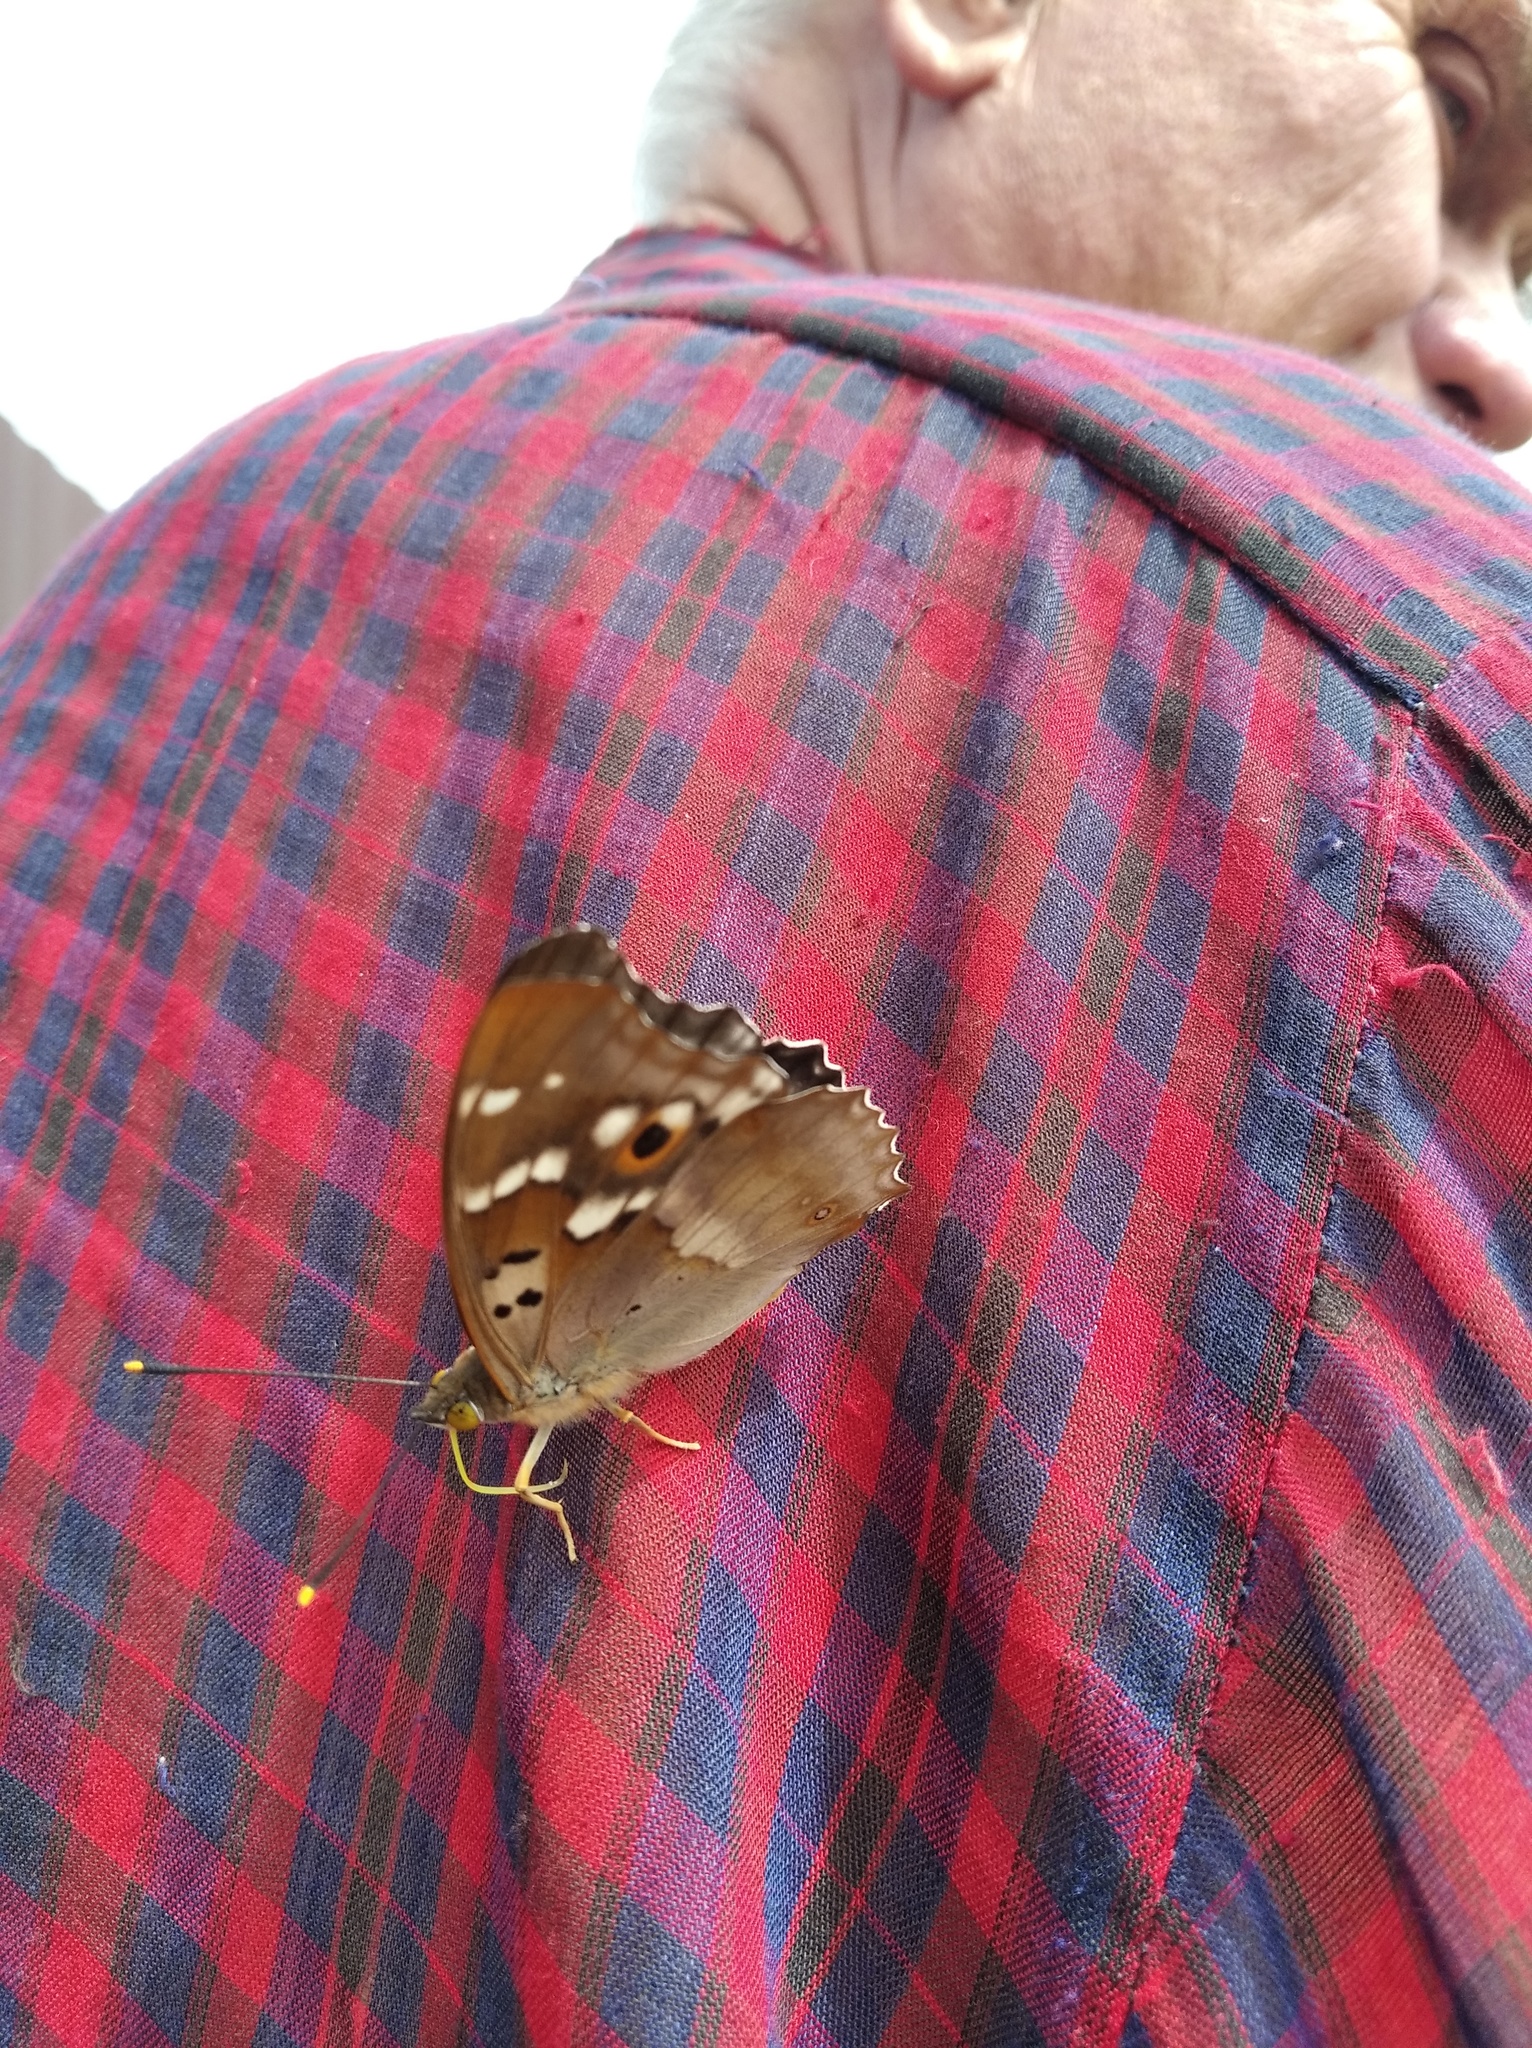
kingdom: Animalia
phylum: Arthropoda
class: Insecta
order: Lepidoptera
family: Nymphalidae
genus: Apatura
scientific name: Apatura ilia
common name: Lesser purple emperor
